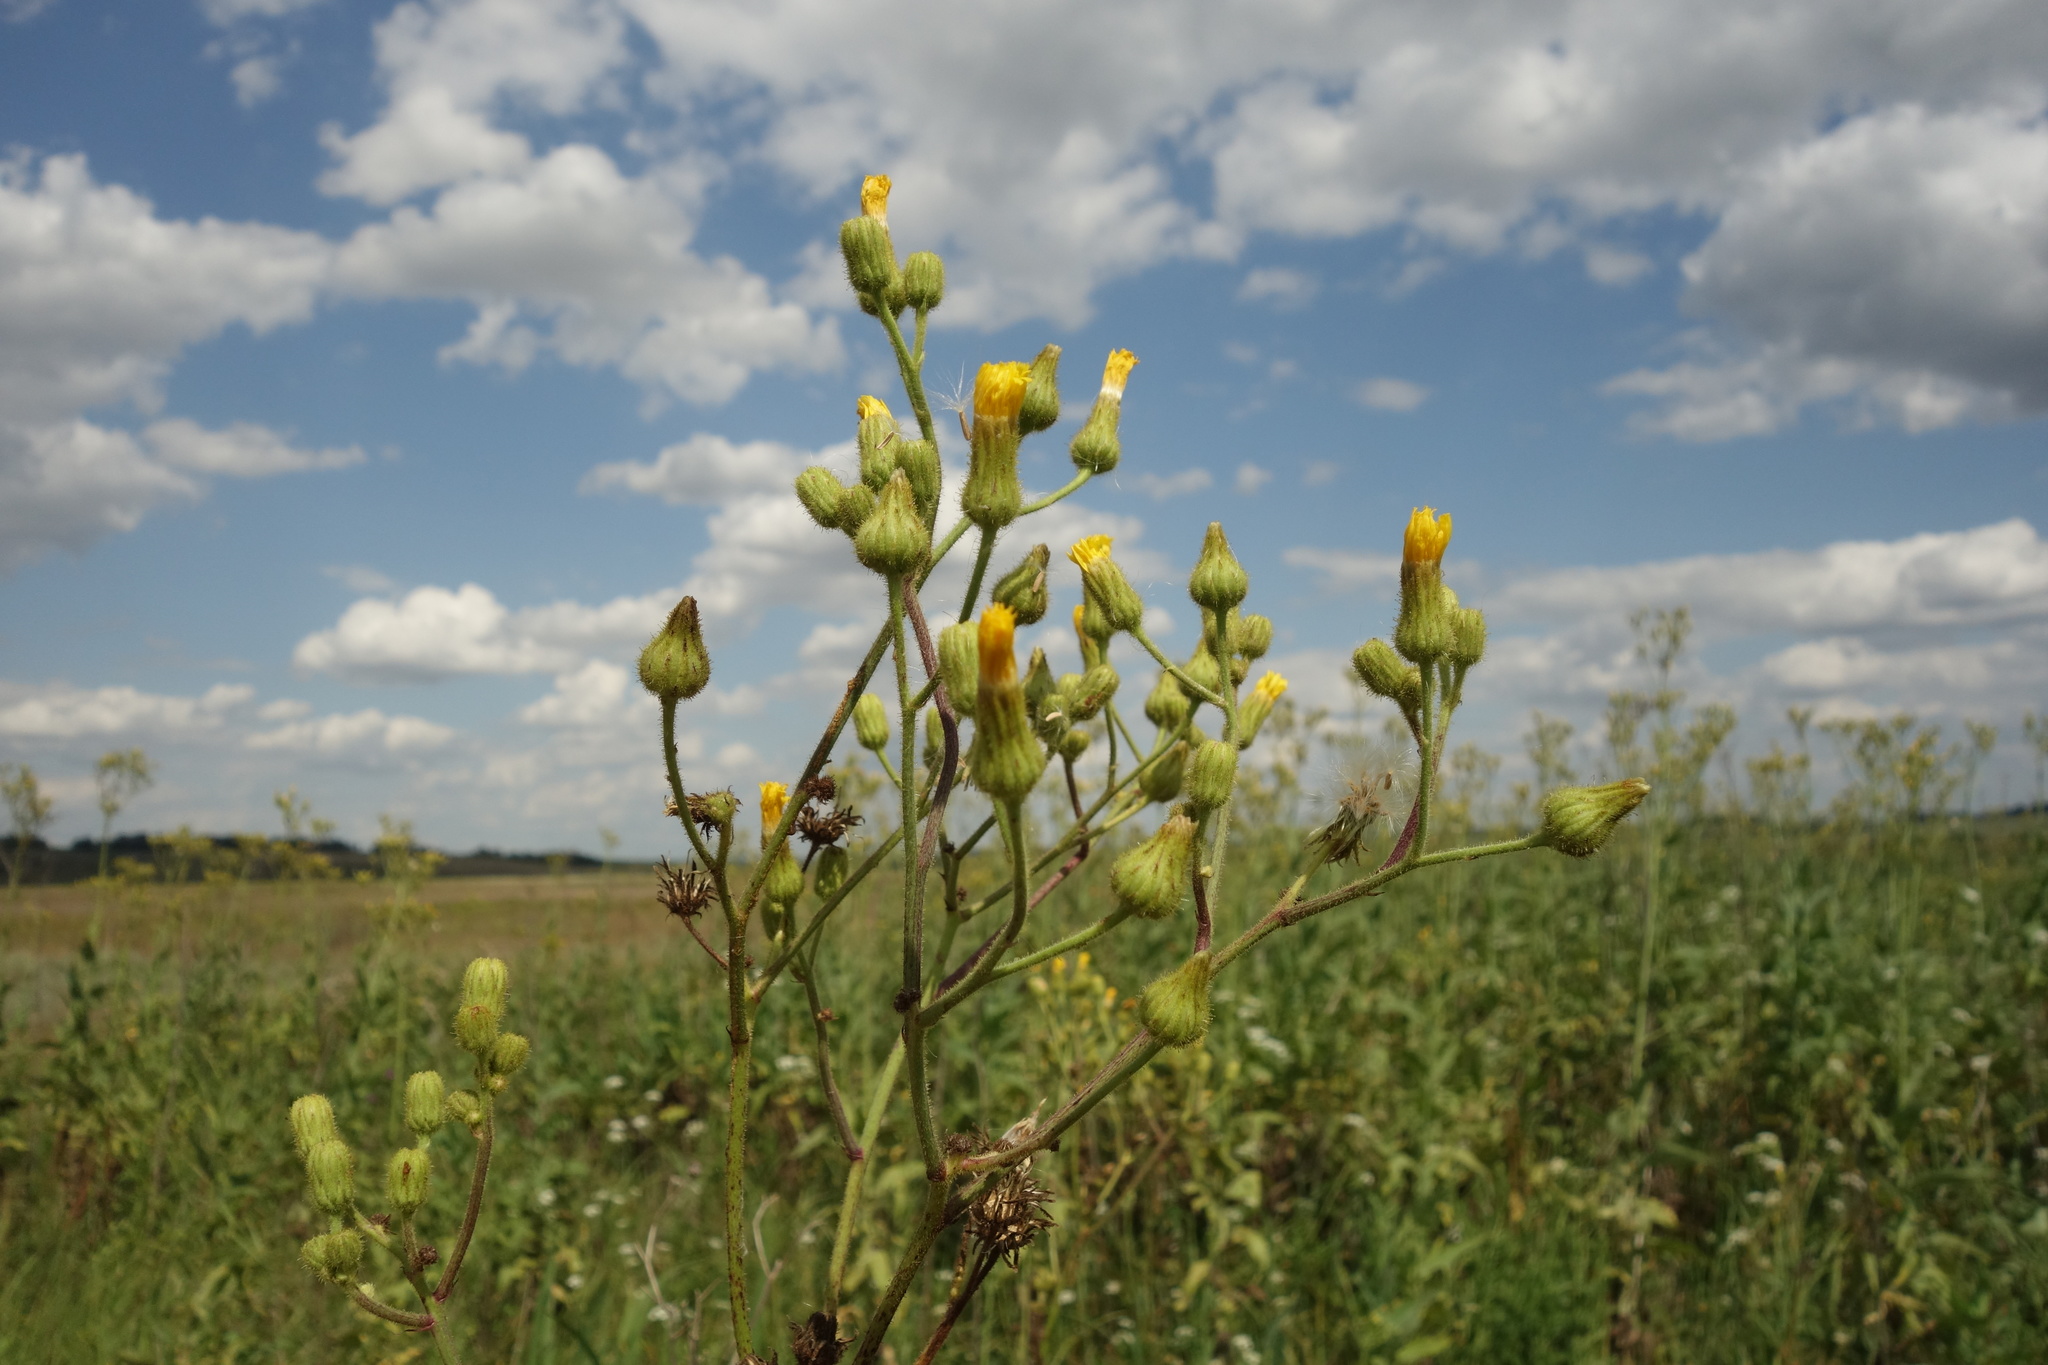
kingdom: Plantae
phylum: Tracheophyta
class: Magnoliopsida
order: Asterales
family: Asteraceae
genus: Sonchus
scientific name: Sonchus palustris
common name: Marsh sow-thistle
